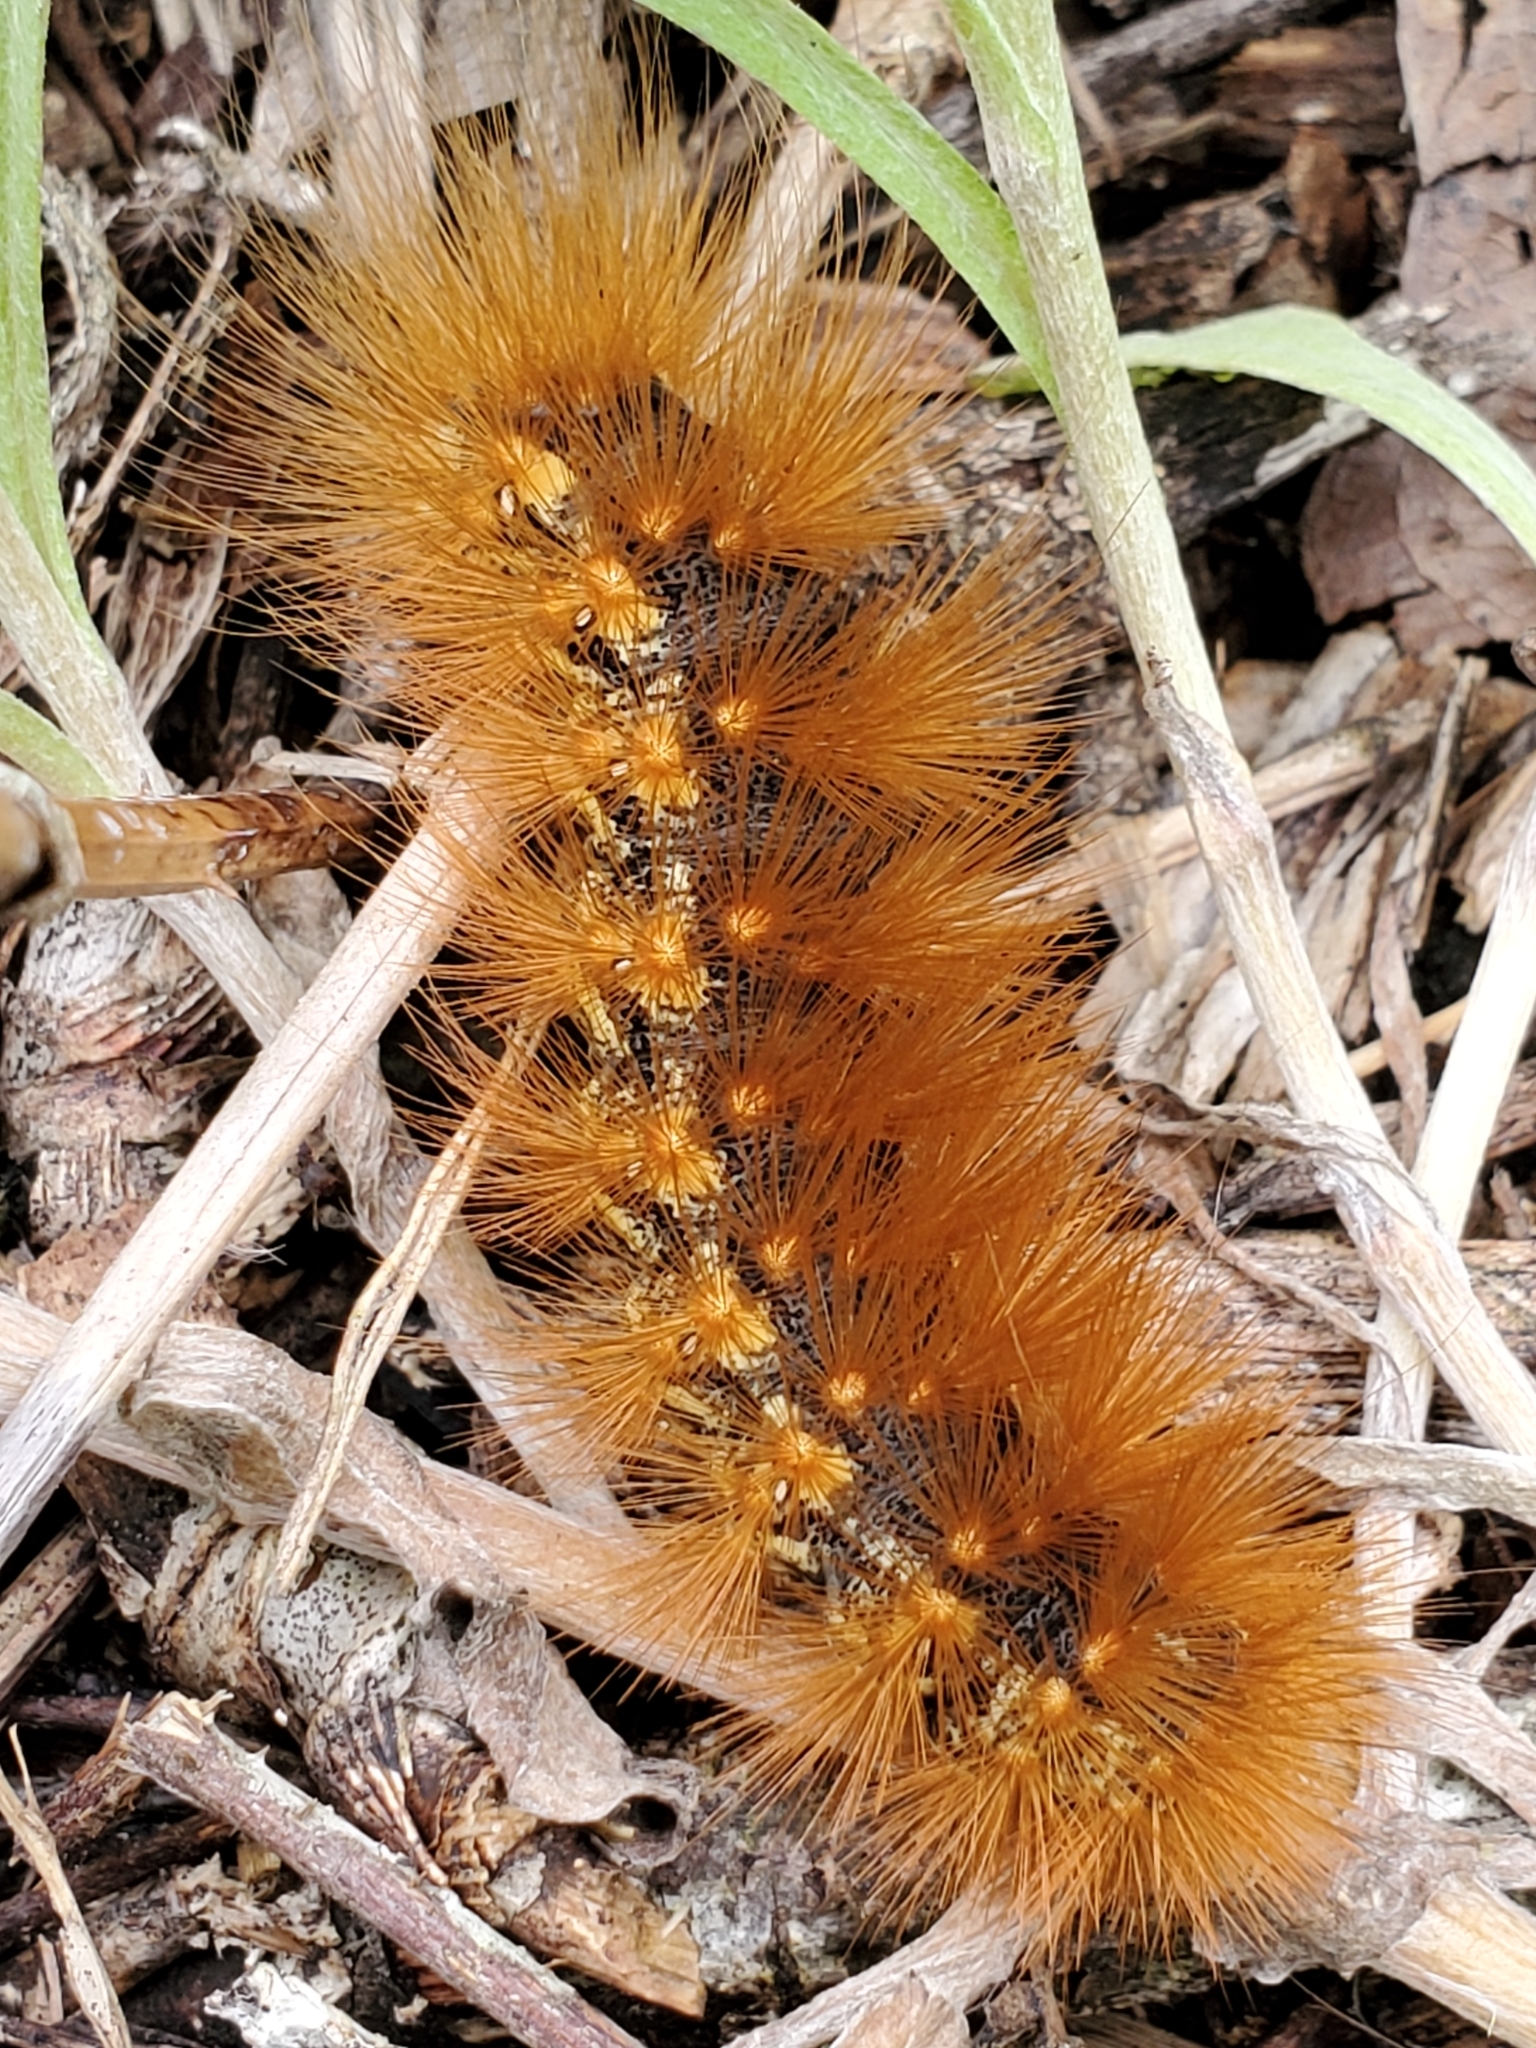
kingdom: Animalia
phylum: Arthropoda
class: Insecta
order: Lepidoptera
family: Erebidae
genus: Estigmene
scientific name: Estigmene acrea
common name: Salt marsh moth
